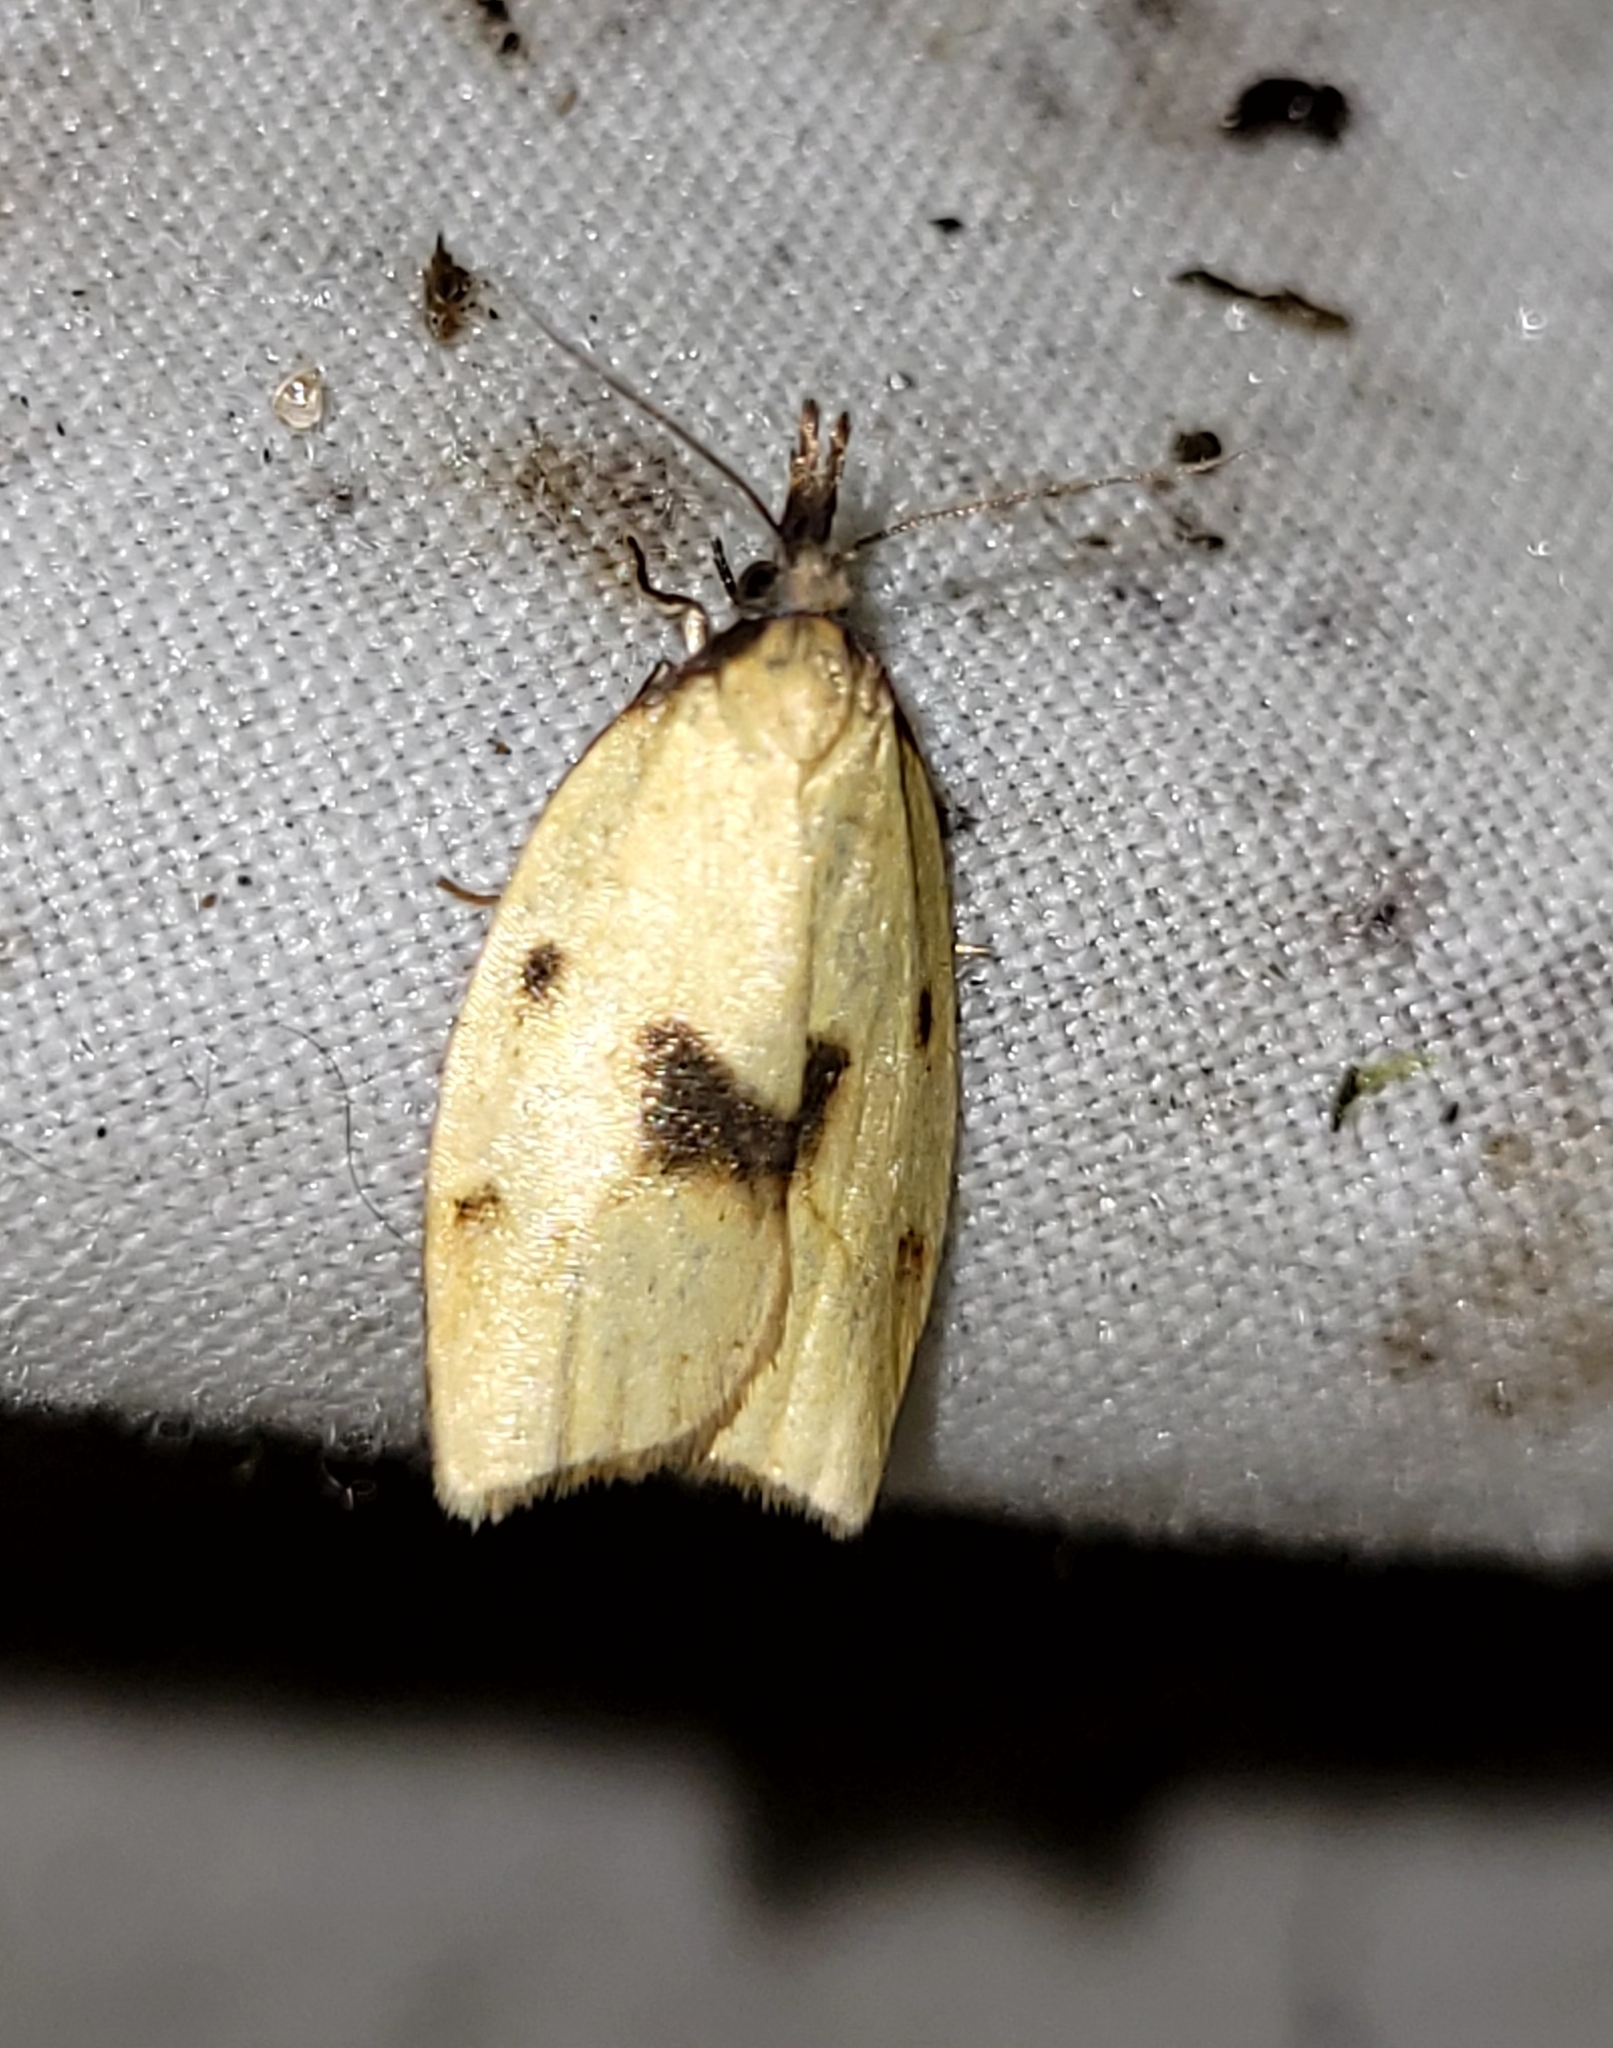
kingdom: Animalia
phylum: Arthropoda
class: Insecta
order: Lepidoptera
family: Tortricidae
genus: Sparganothis
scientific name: Sparganothis xanthoides
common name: Mosaic sparganothis moth
